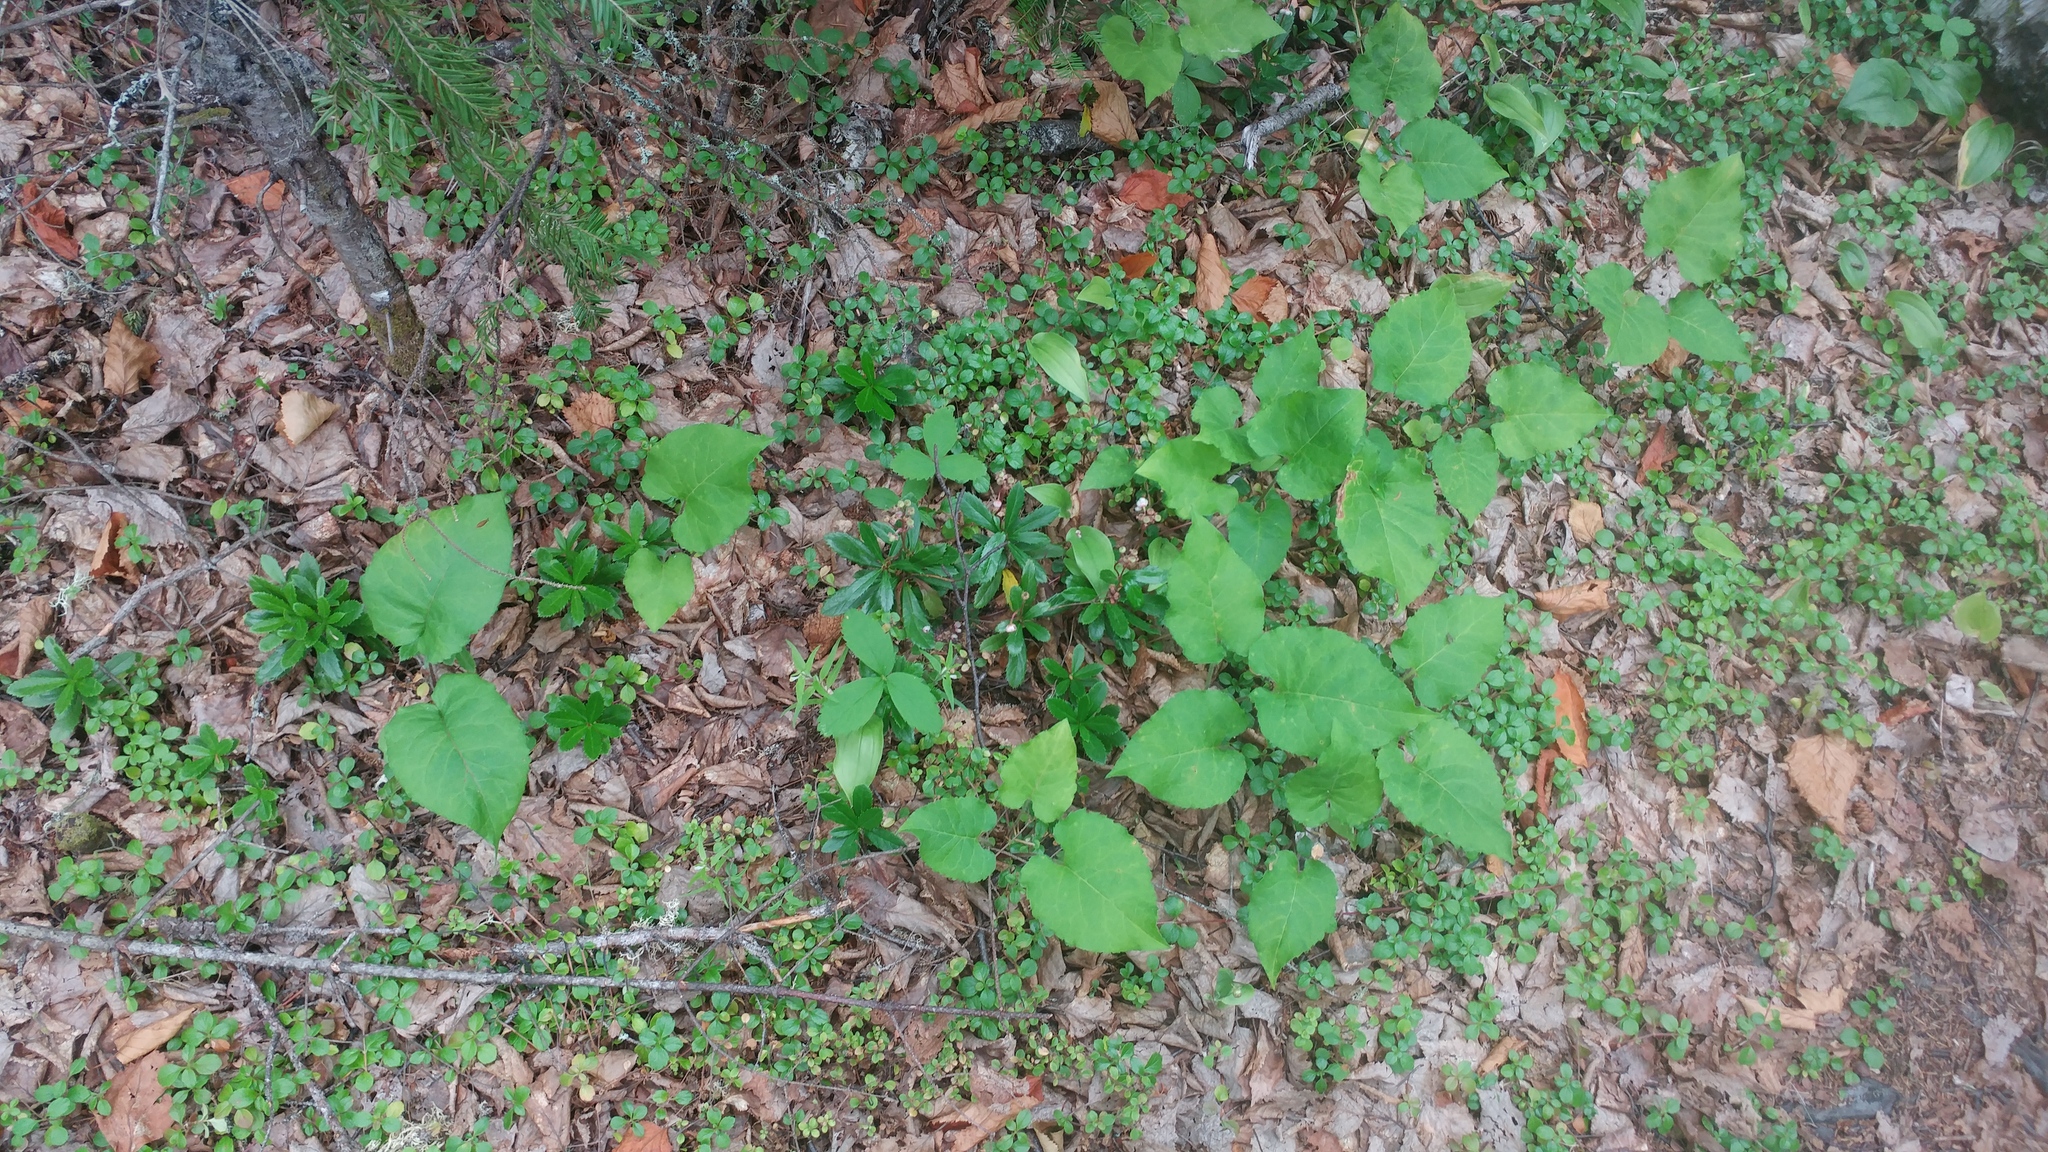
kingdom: Plantae
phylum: Tracheophyta
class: Magnoliopsida
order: Ericales
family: Ericaceae
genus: Chimaphila
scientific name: Chimaphila umbellata
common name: Pipsissewa
